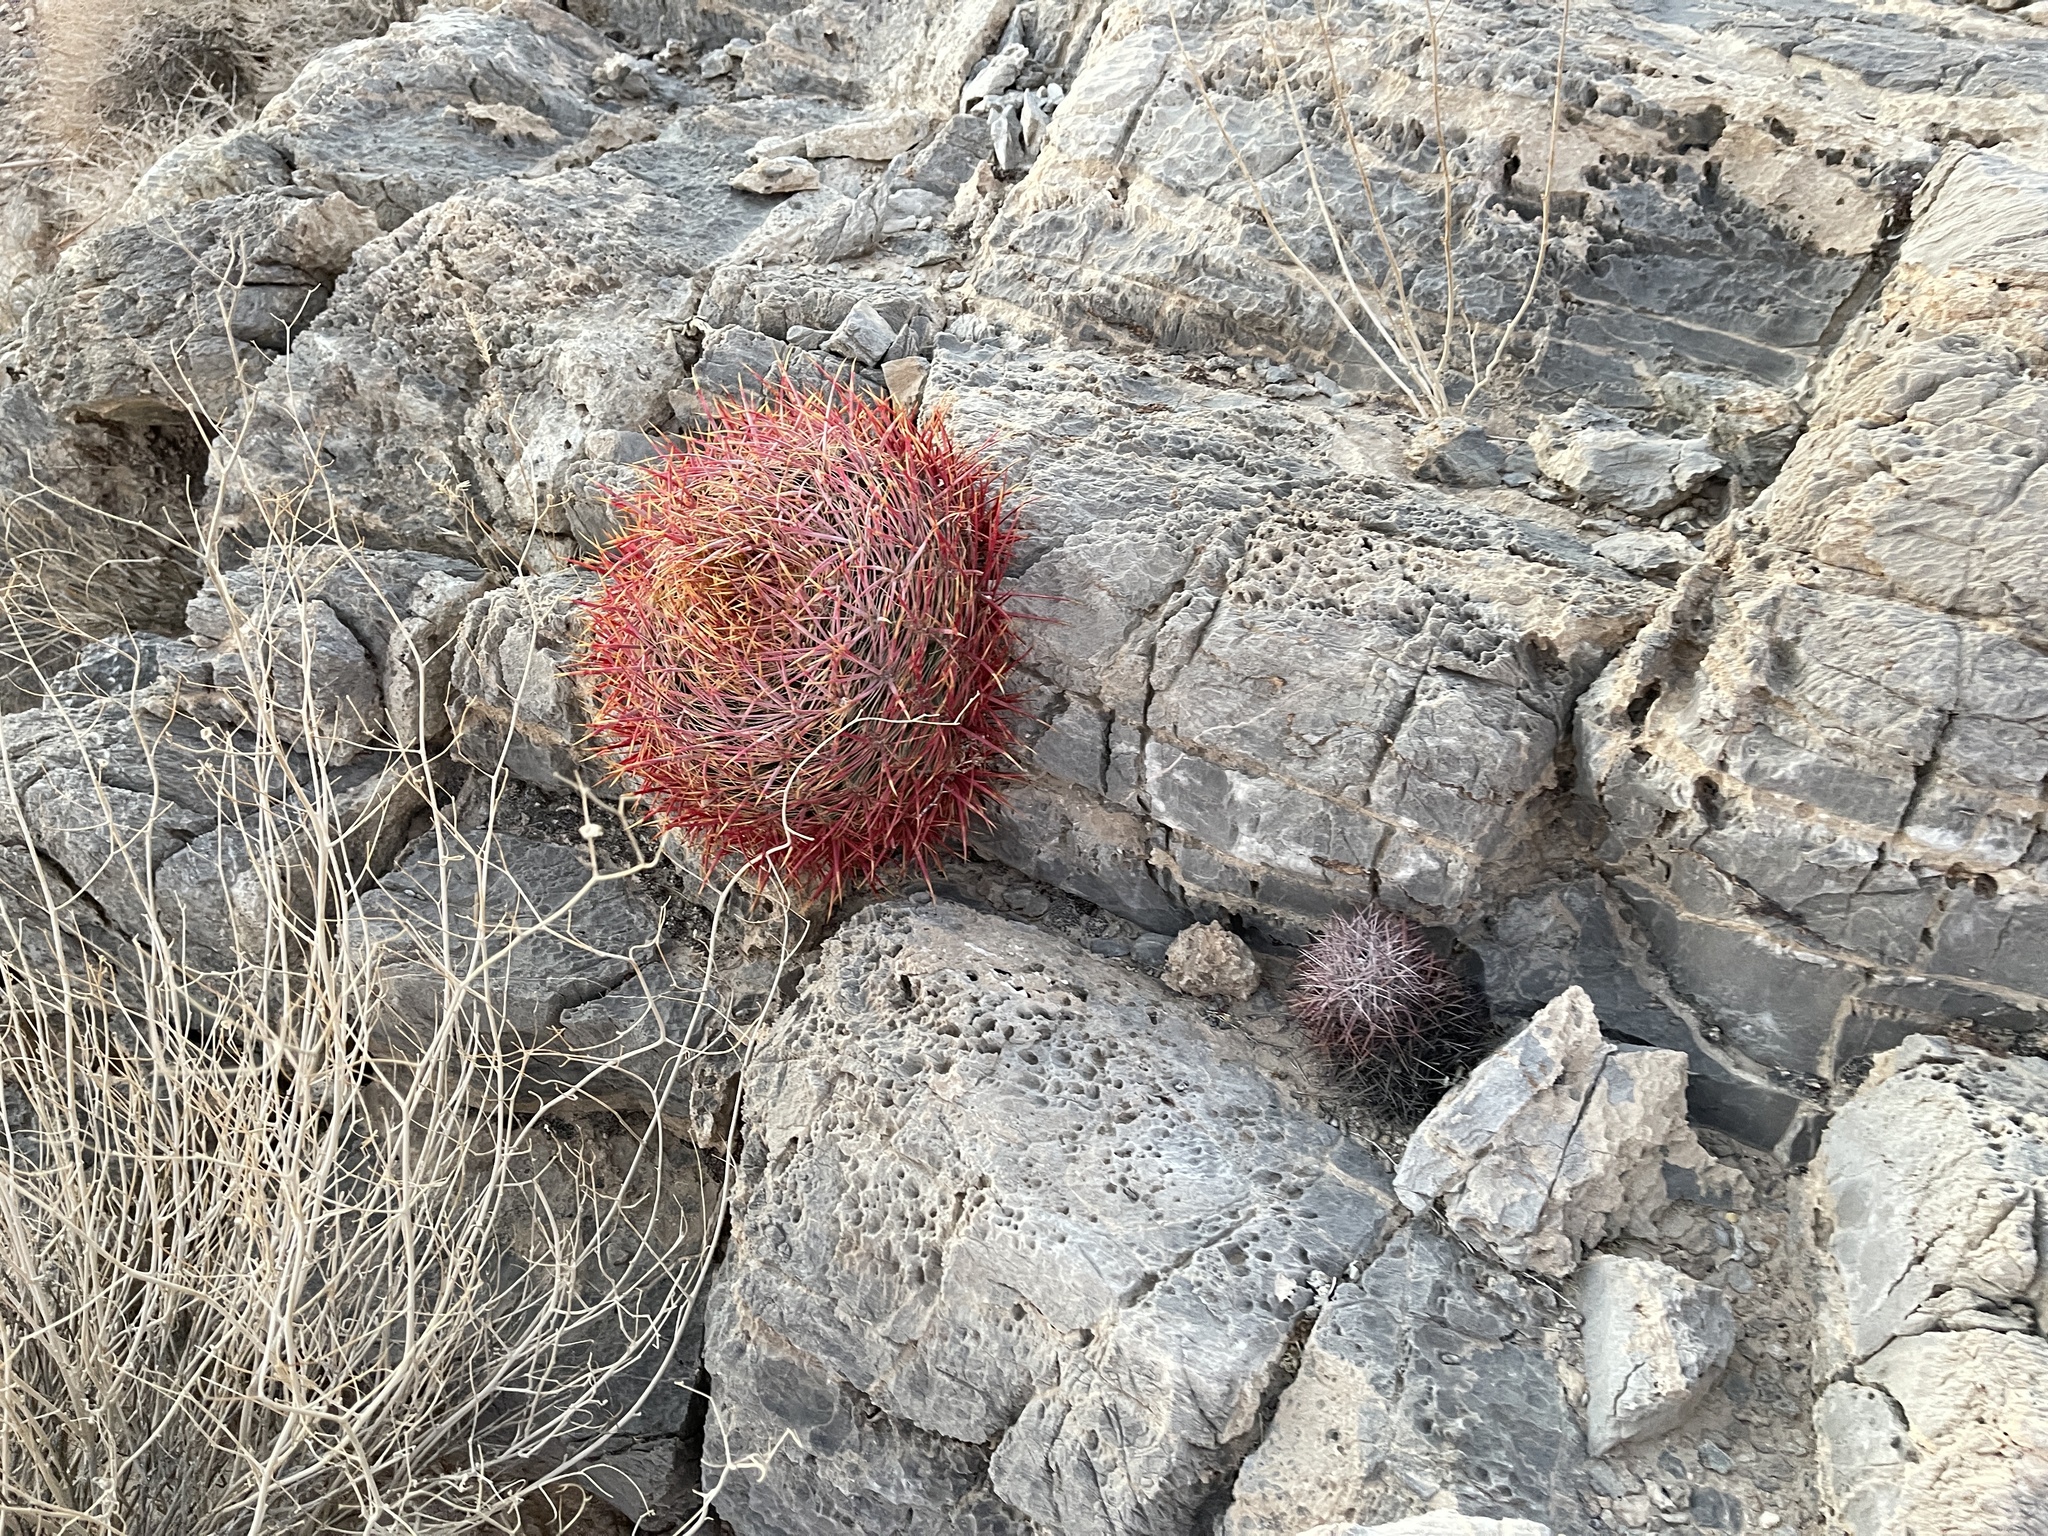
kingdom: Plantae
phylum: Tracheophyta
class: Magnoliopsida
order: Caryophyllales
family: Cactaceae
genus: Ferocactus
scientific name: Ferocactus cylindraceus
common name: California barrel cactus
